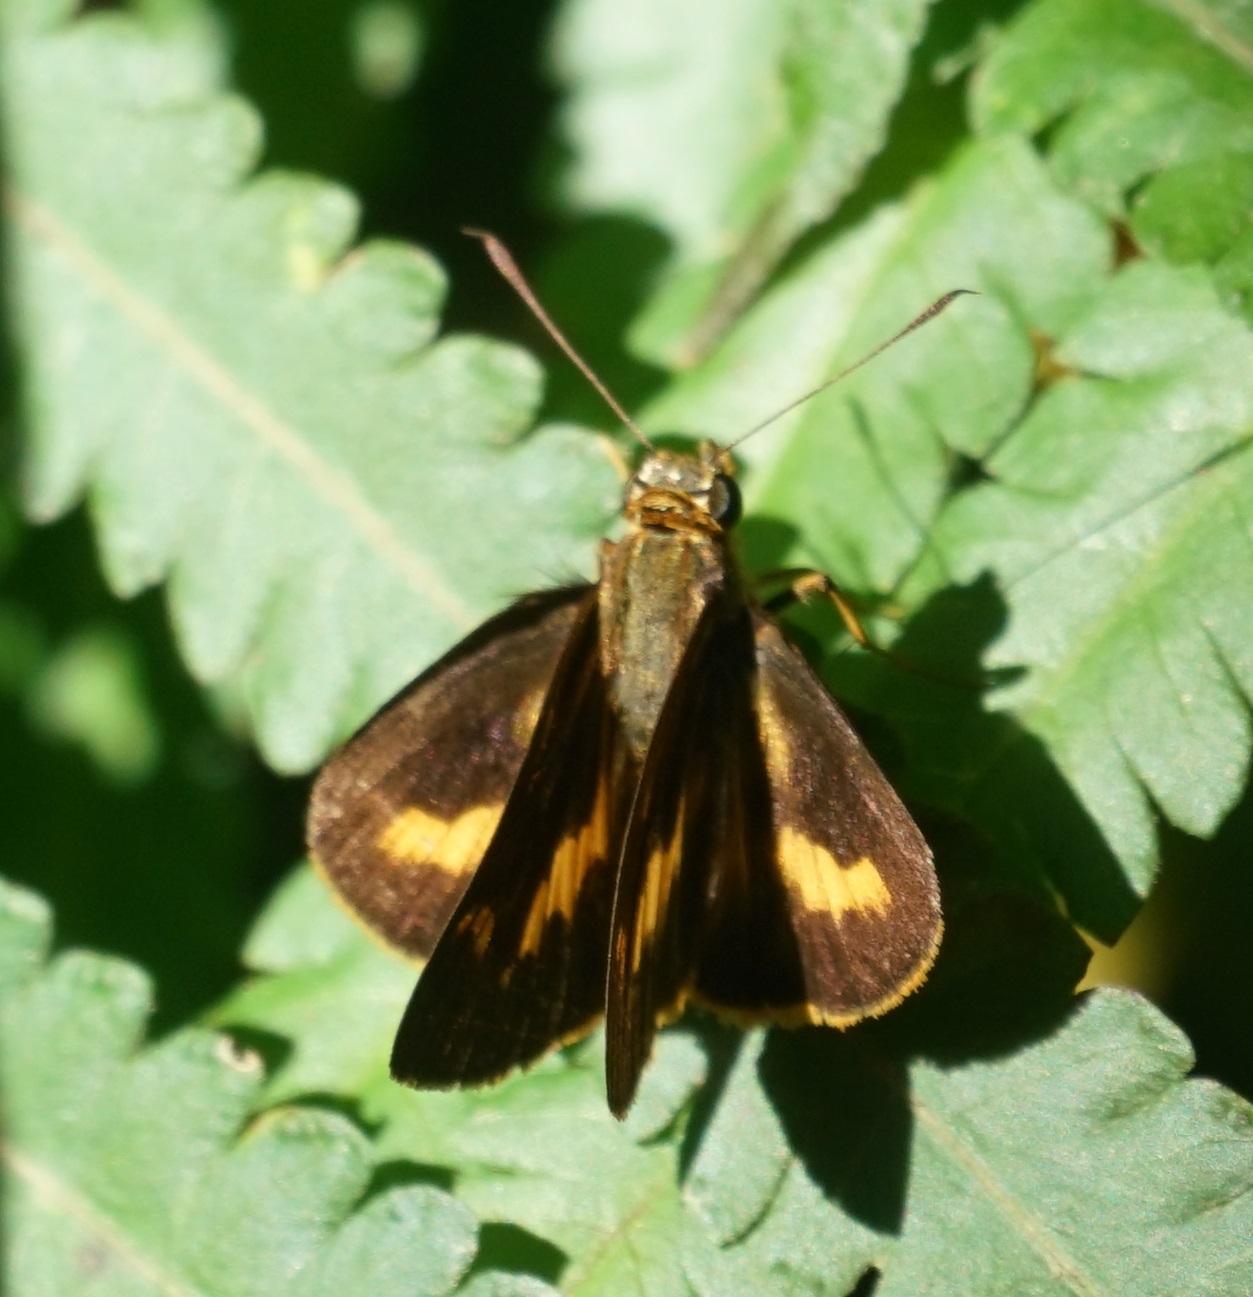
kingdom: Animalia
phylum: Arthropoda
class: Insecta
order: Lepidoptera
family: Hesperiidae
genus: Sabera
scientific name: Sabera dobboe
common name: Yellow-streaked swift
